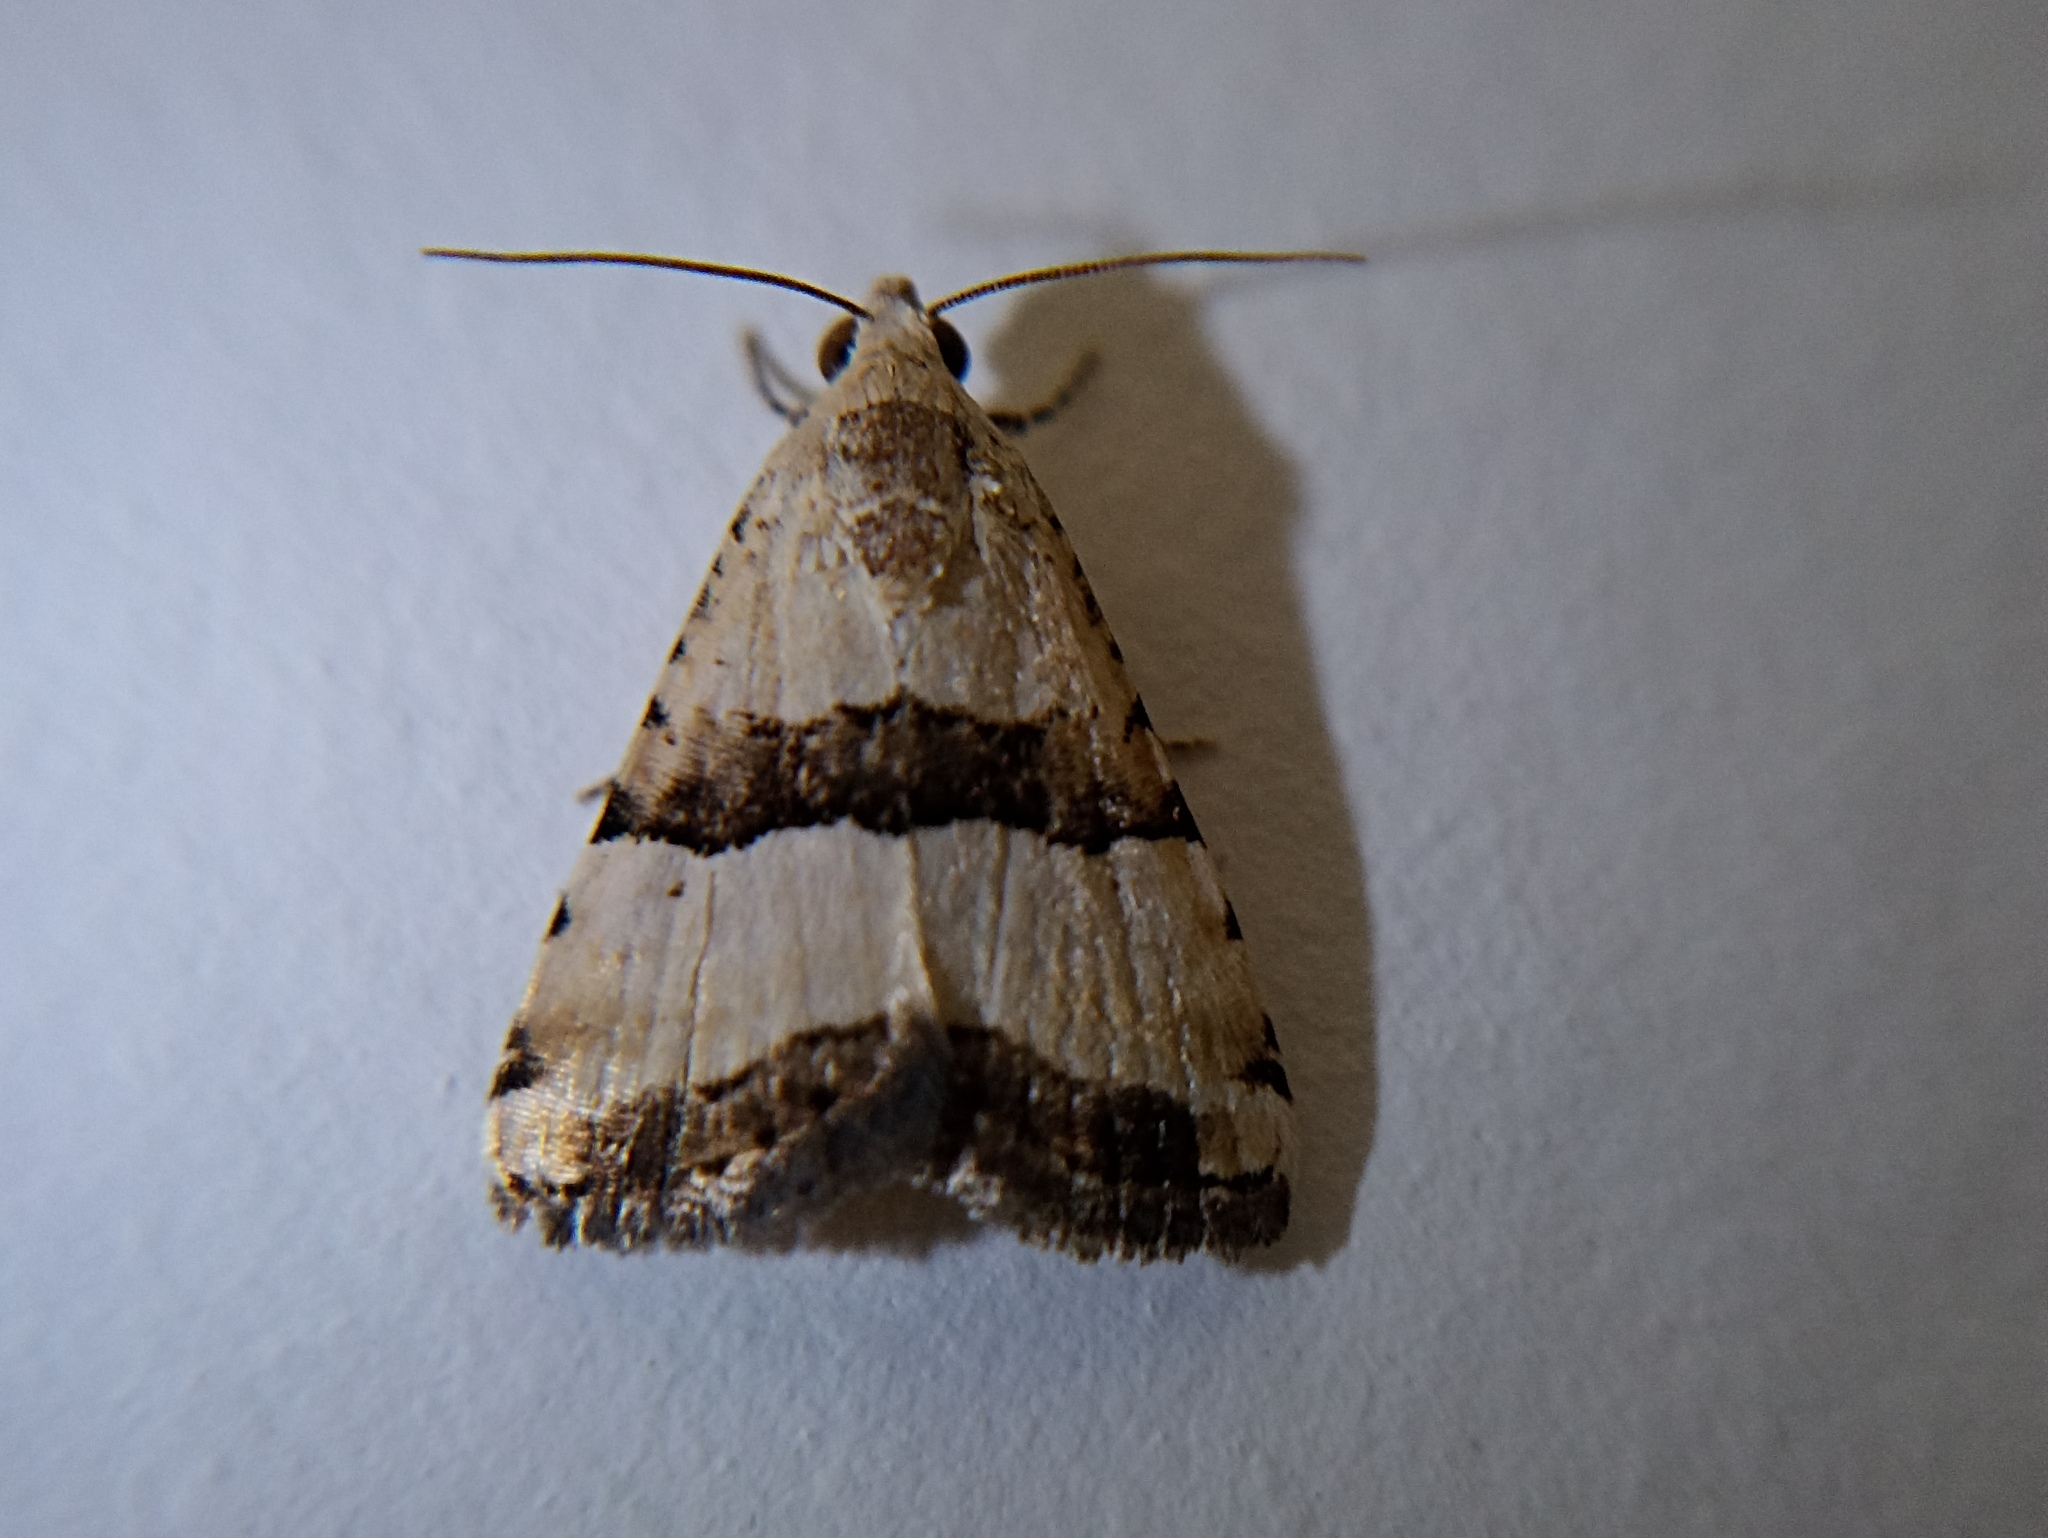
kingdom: Animalia
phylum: Arthropoda
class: Insecta
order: Lepidoptera
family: Noctuidae
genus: Pseudozarba
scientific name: Pseudozarba bipartita
